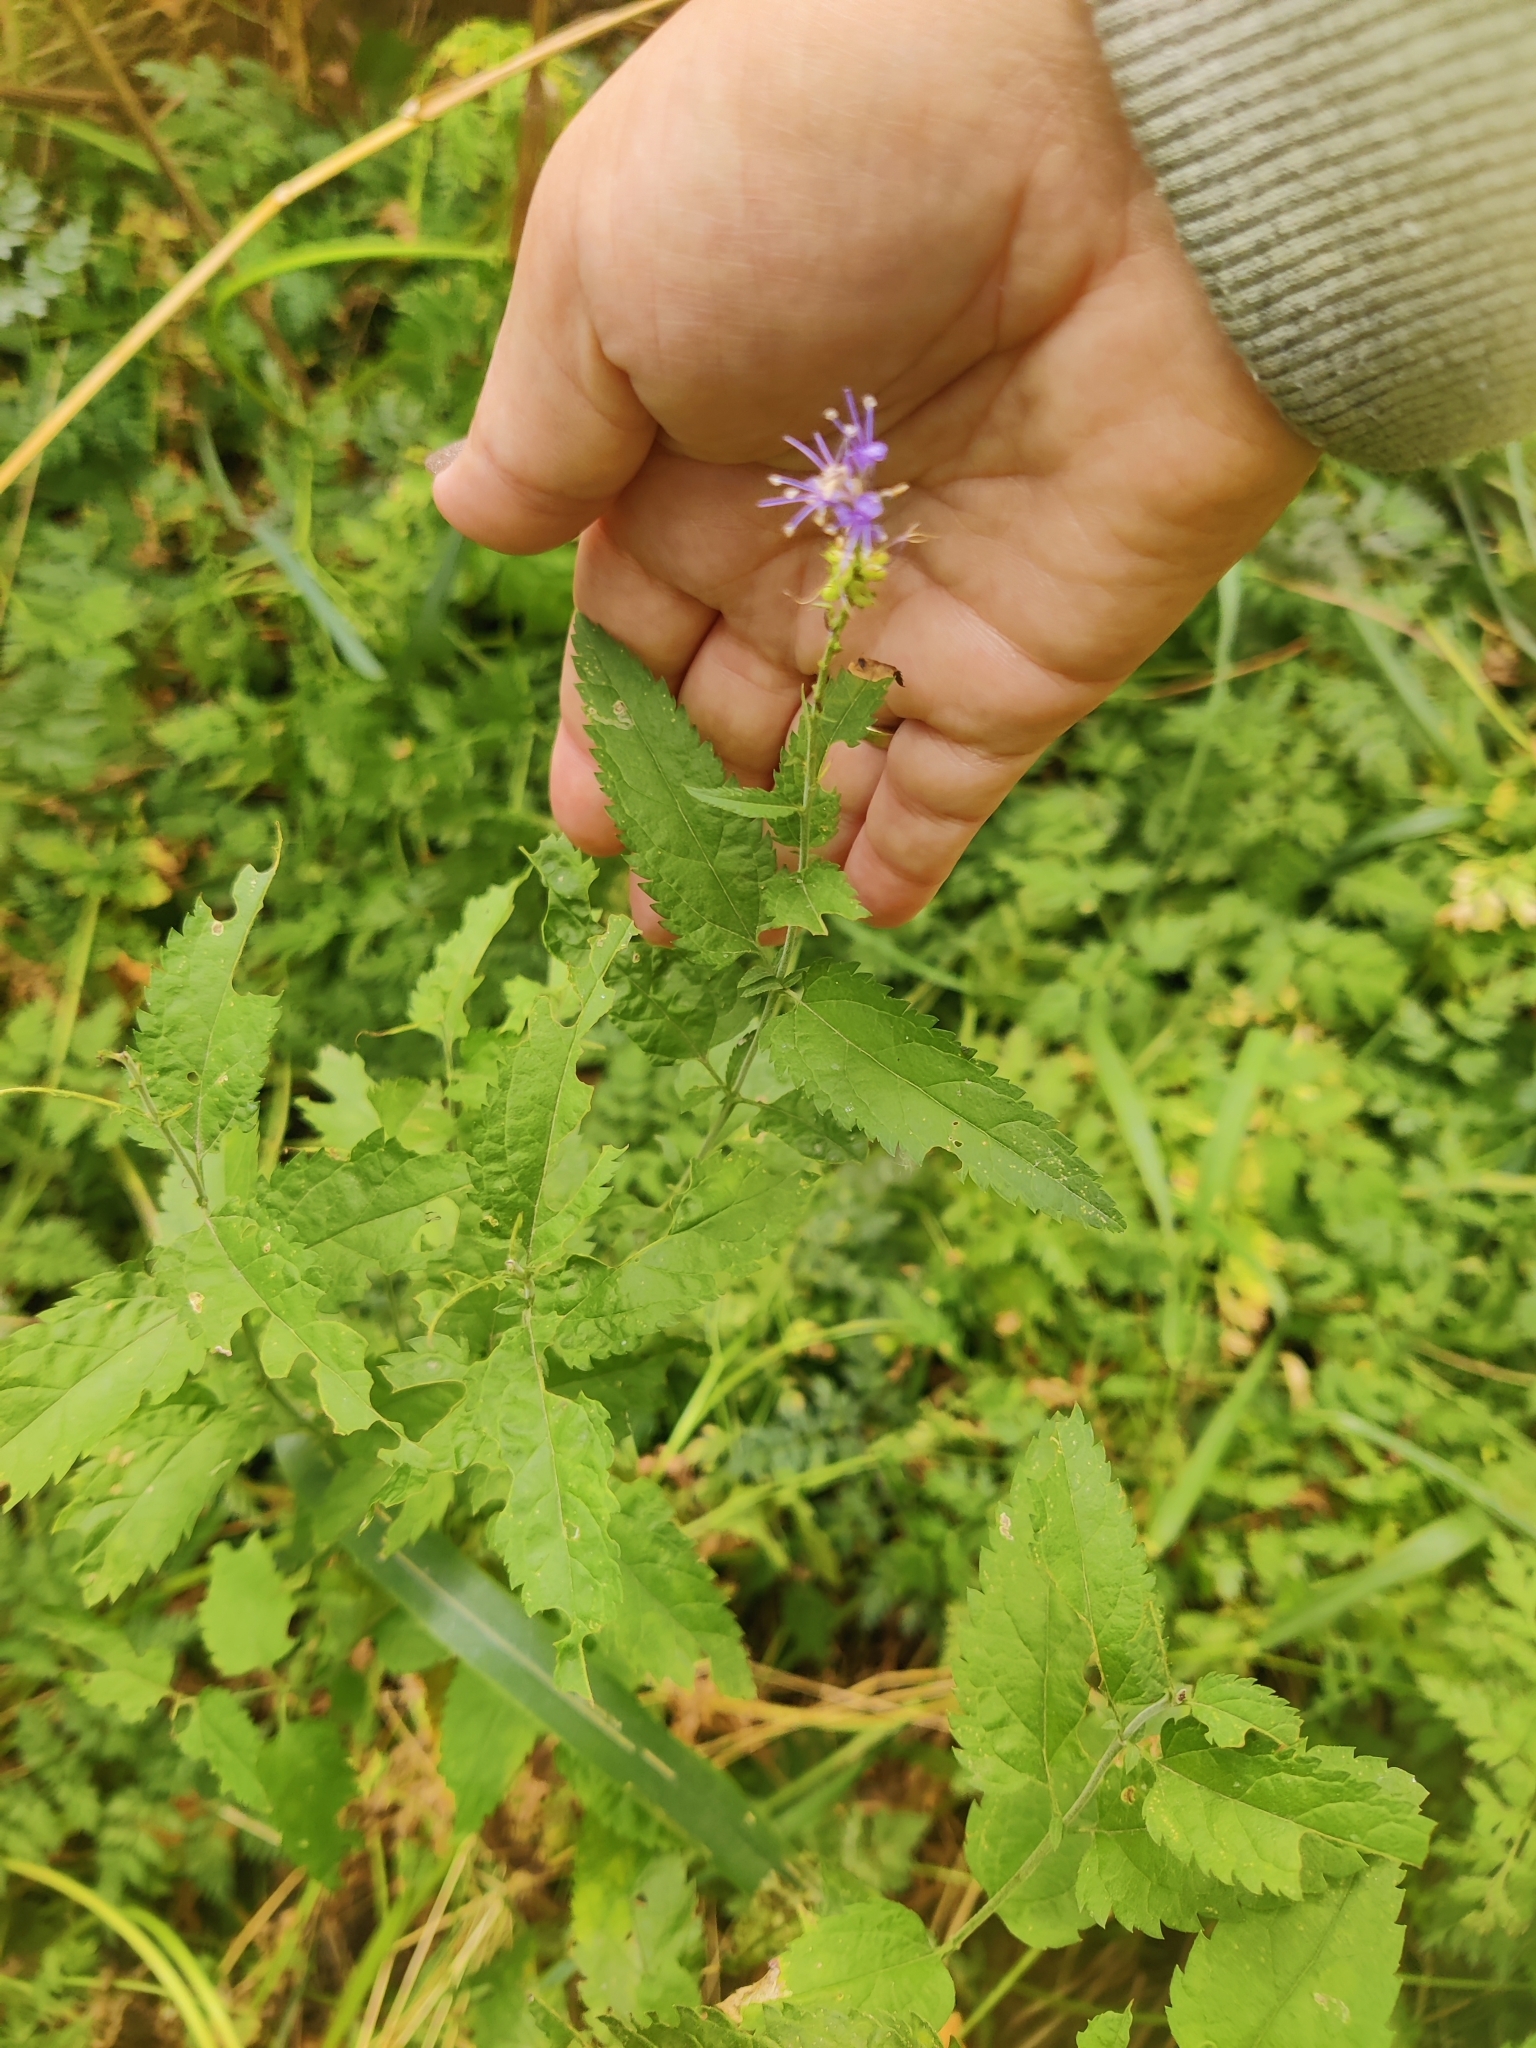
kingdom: Plantae
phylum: Tracheophyta
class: Magnoliopsida
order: Lamiales
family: Plantaginaceae
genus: Veronica
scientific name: Veronica longifolia
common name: Garden speedwell
